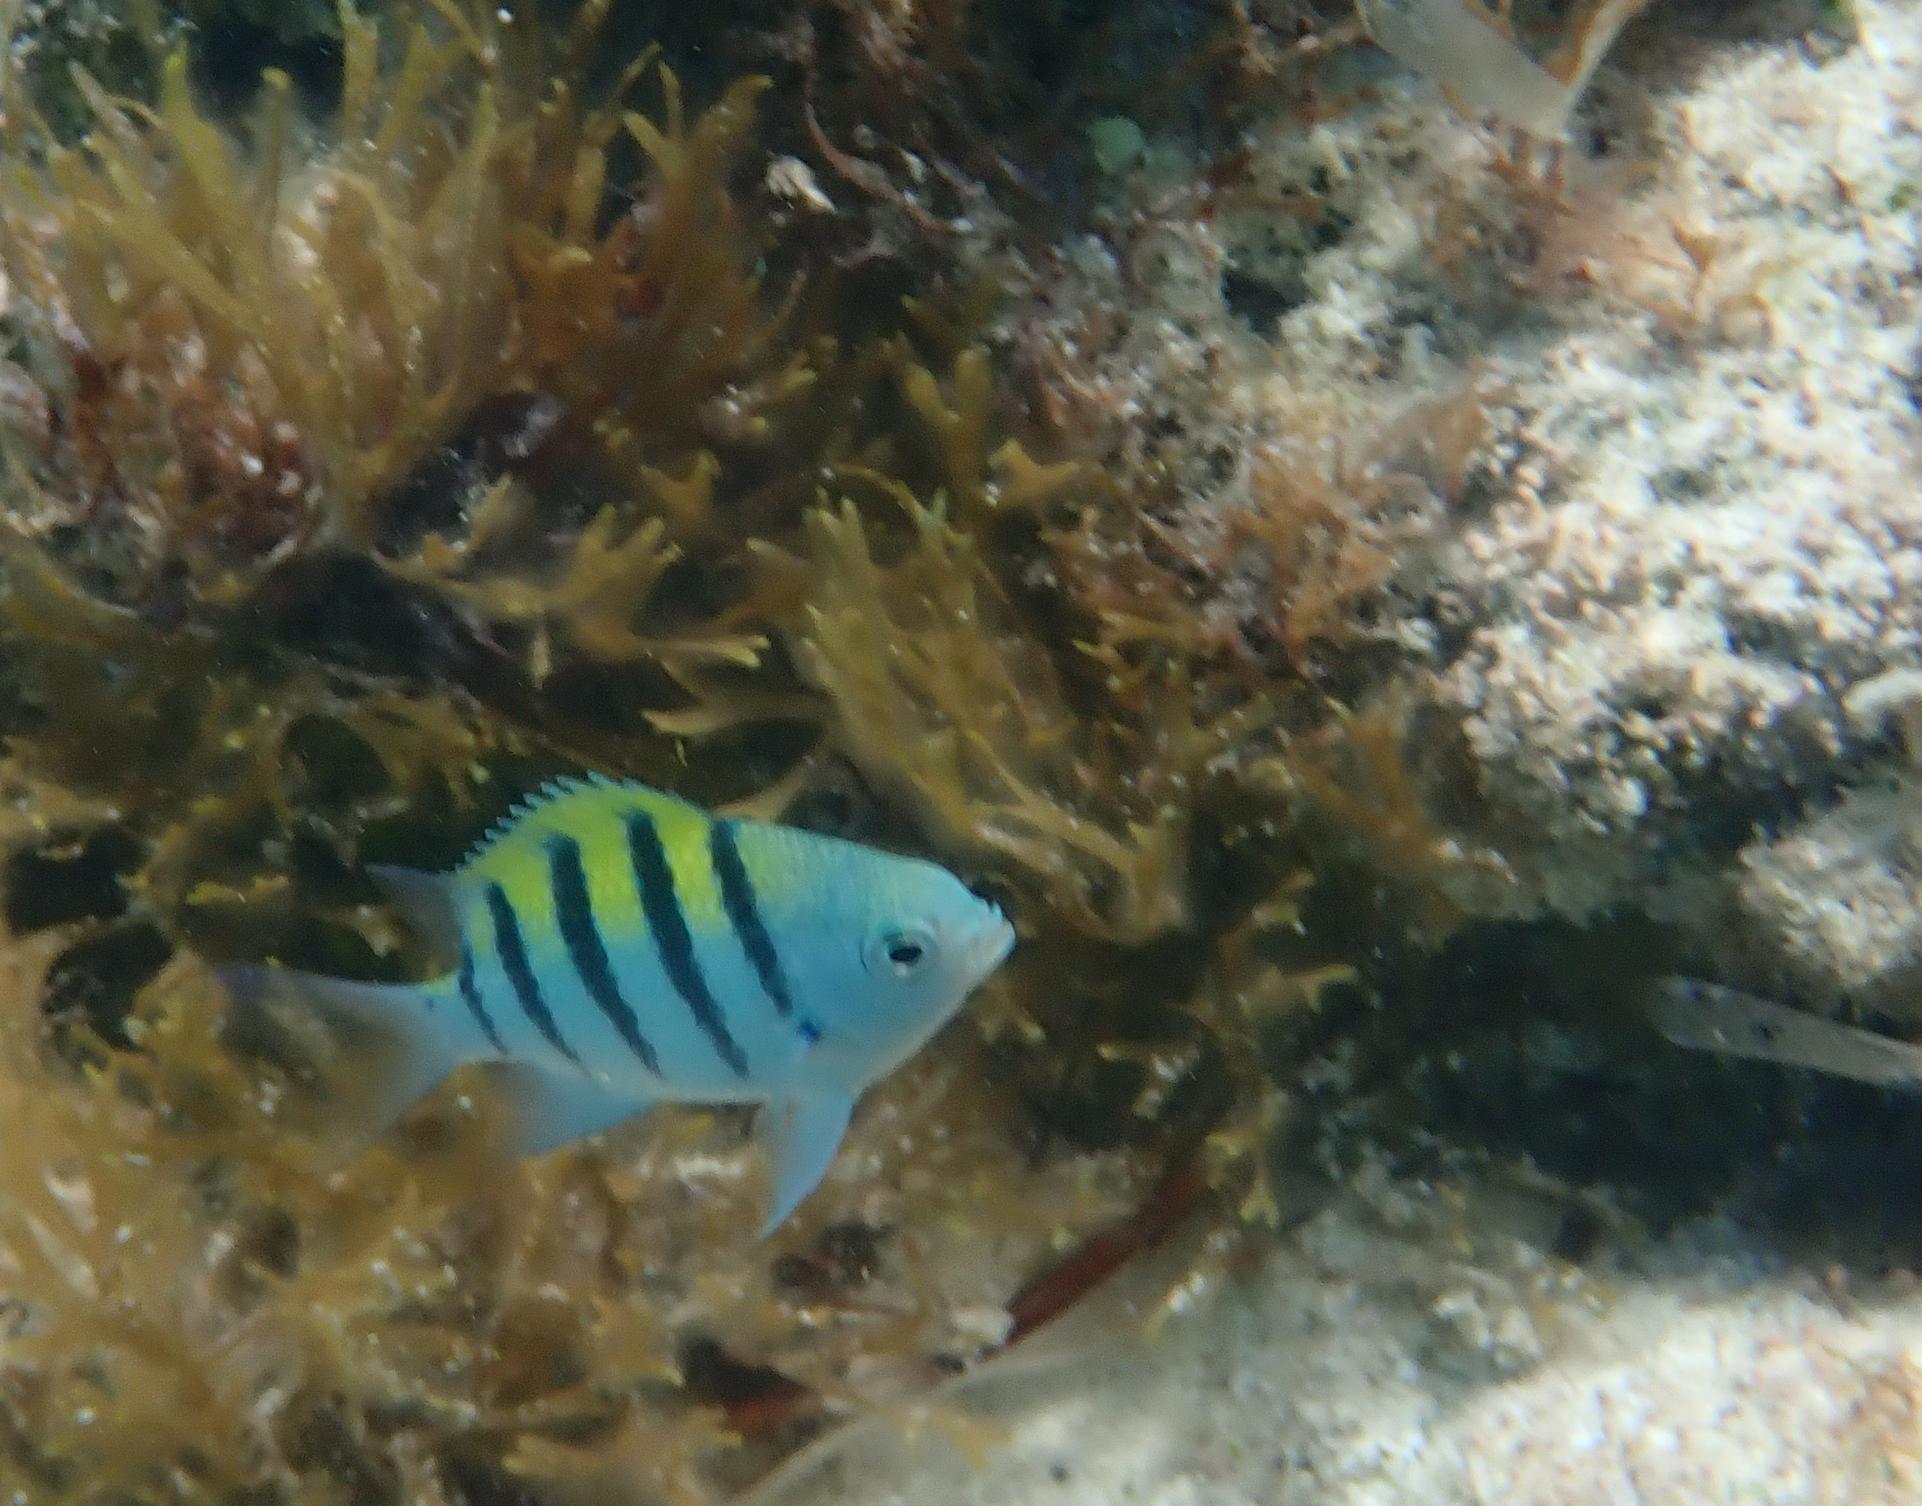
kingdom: Animalia
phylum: Chordata
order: Perciformes
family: Pomacentridae
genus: Abudefduf
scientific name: Abudefduf saxatilis
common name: Sergeant major
